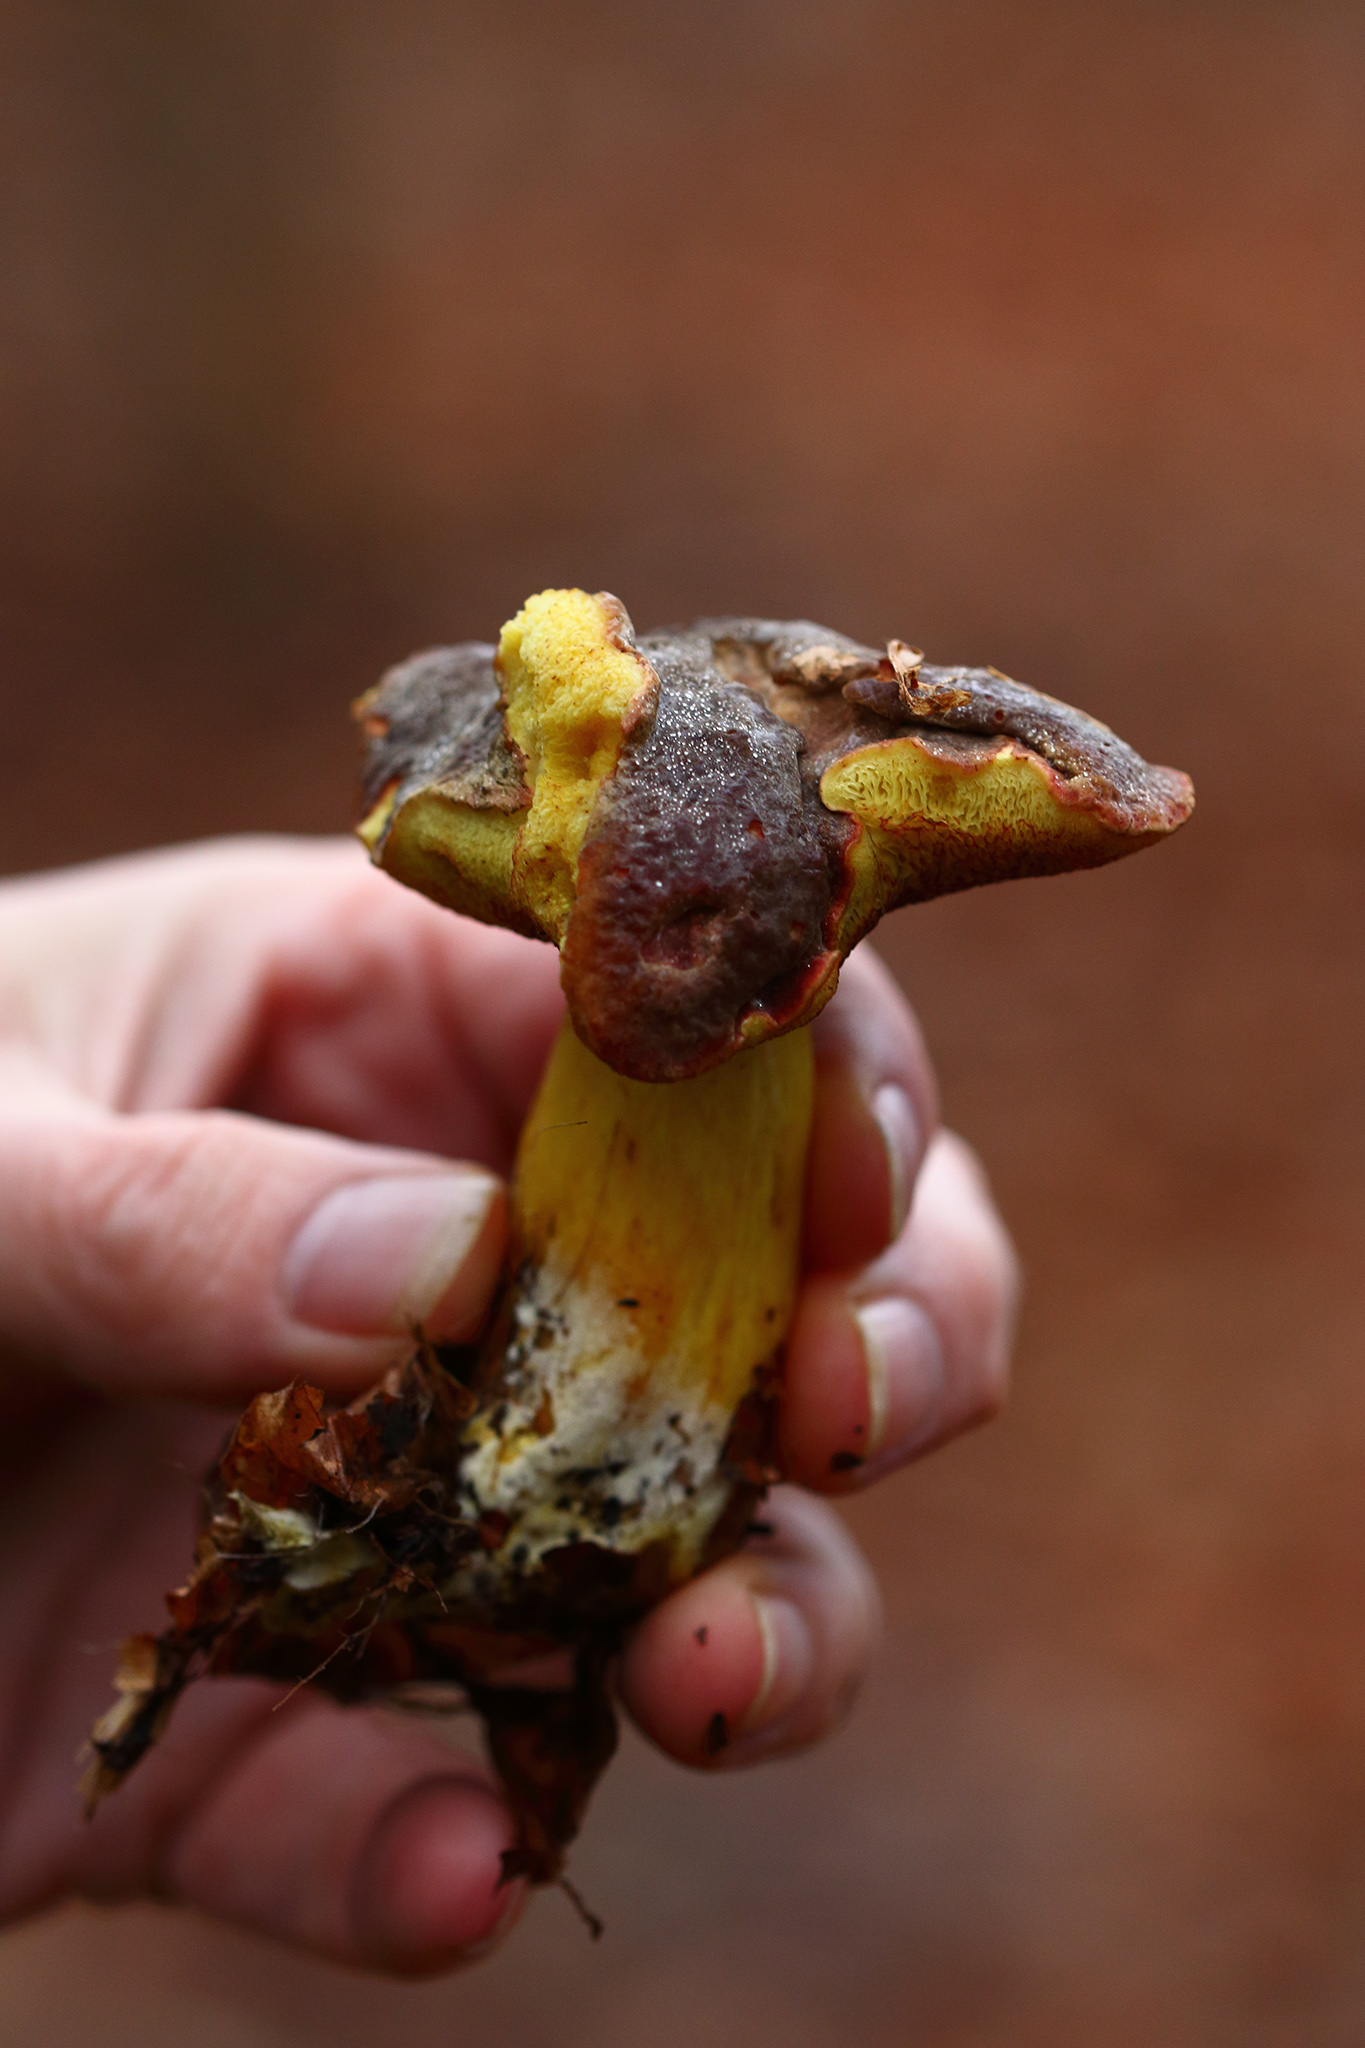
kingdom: Fungi
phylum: Basidiomycota
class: Agaricomycetes
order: Boletales
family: Boletaceae
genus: Xerocomellus
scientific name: Xerocomellus pruinatus
